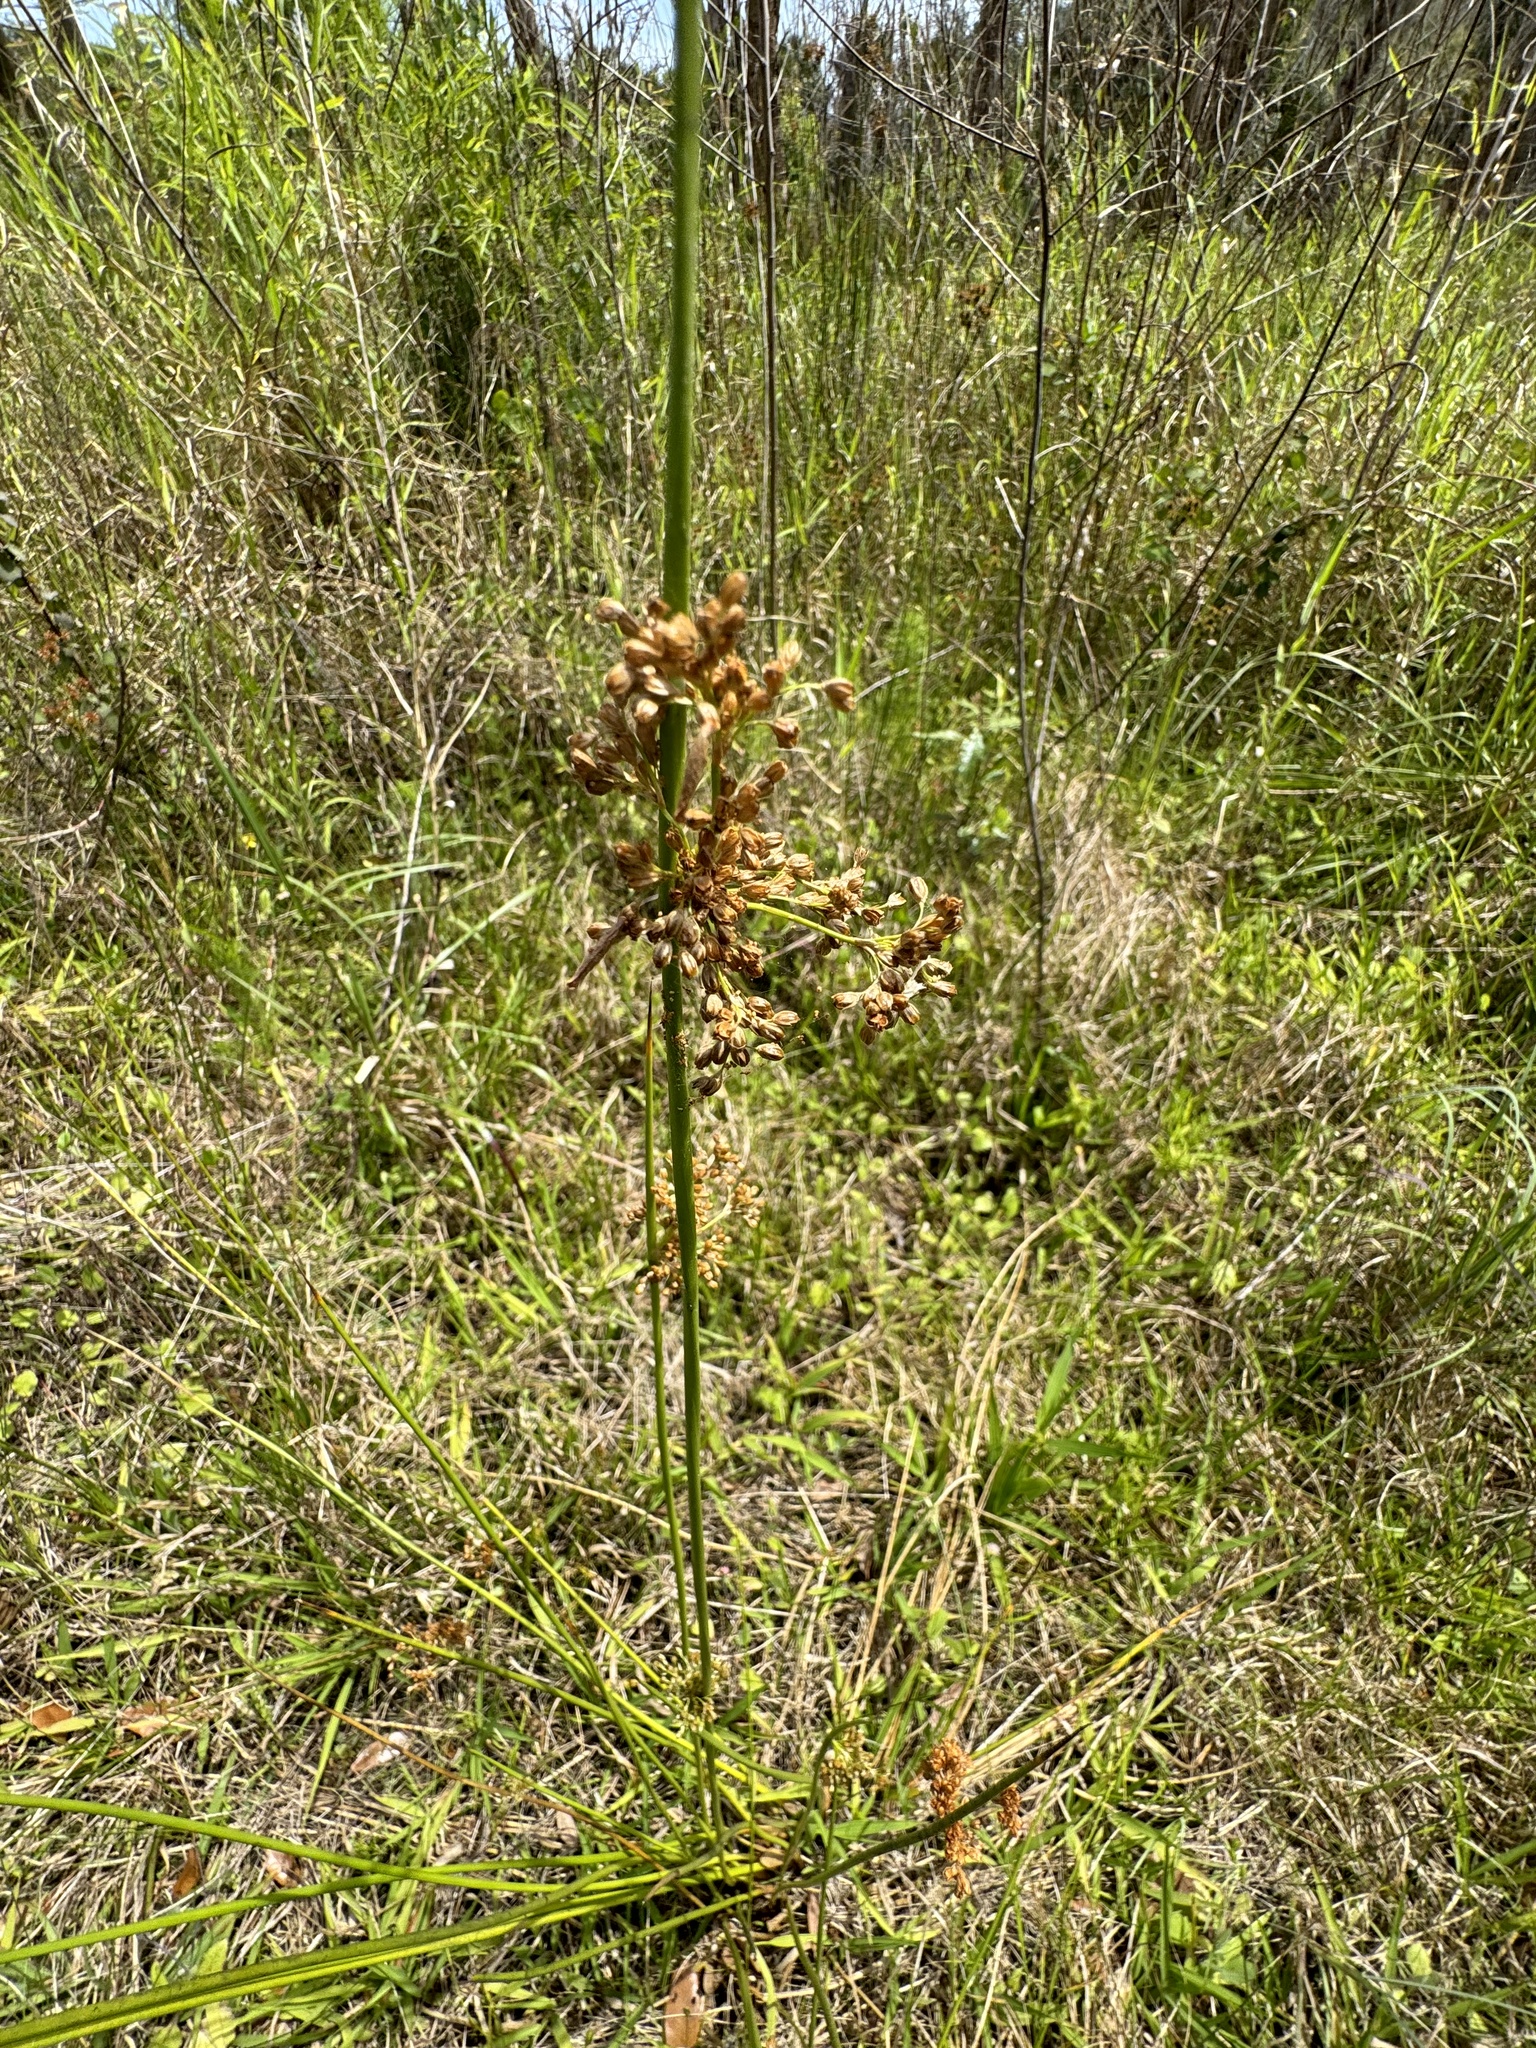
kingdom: Plantae
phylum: Tracheophyta
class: Liliopsida
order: Poales
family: Juncaceae
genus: Juncus
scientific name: Juncus effusus
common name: Soft rush
